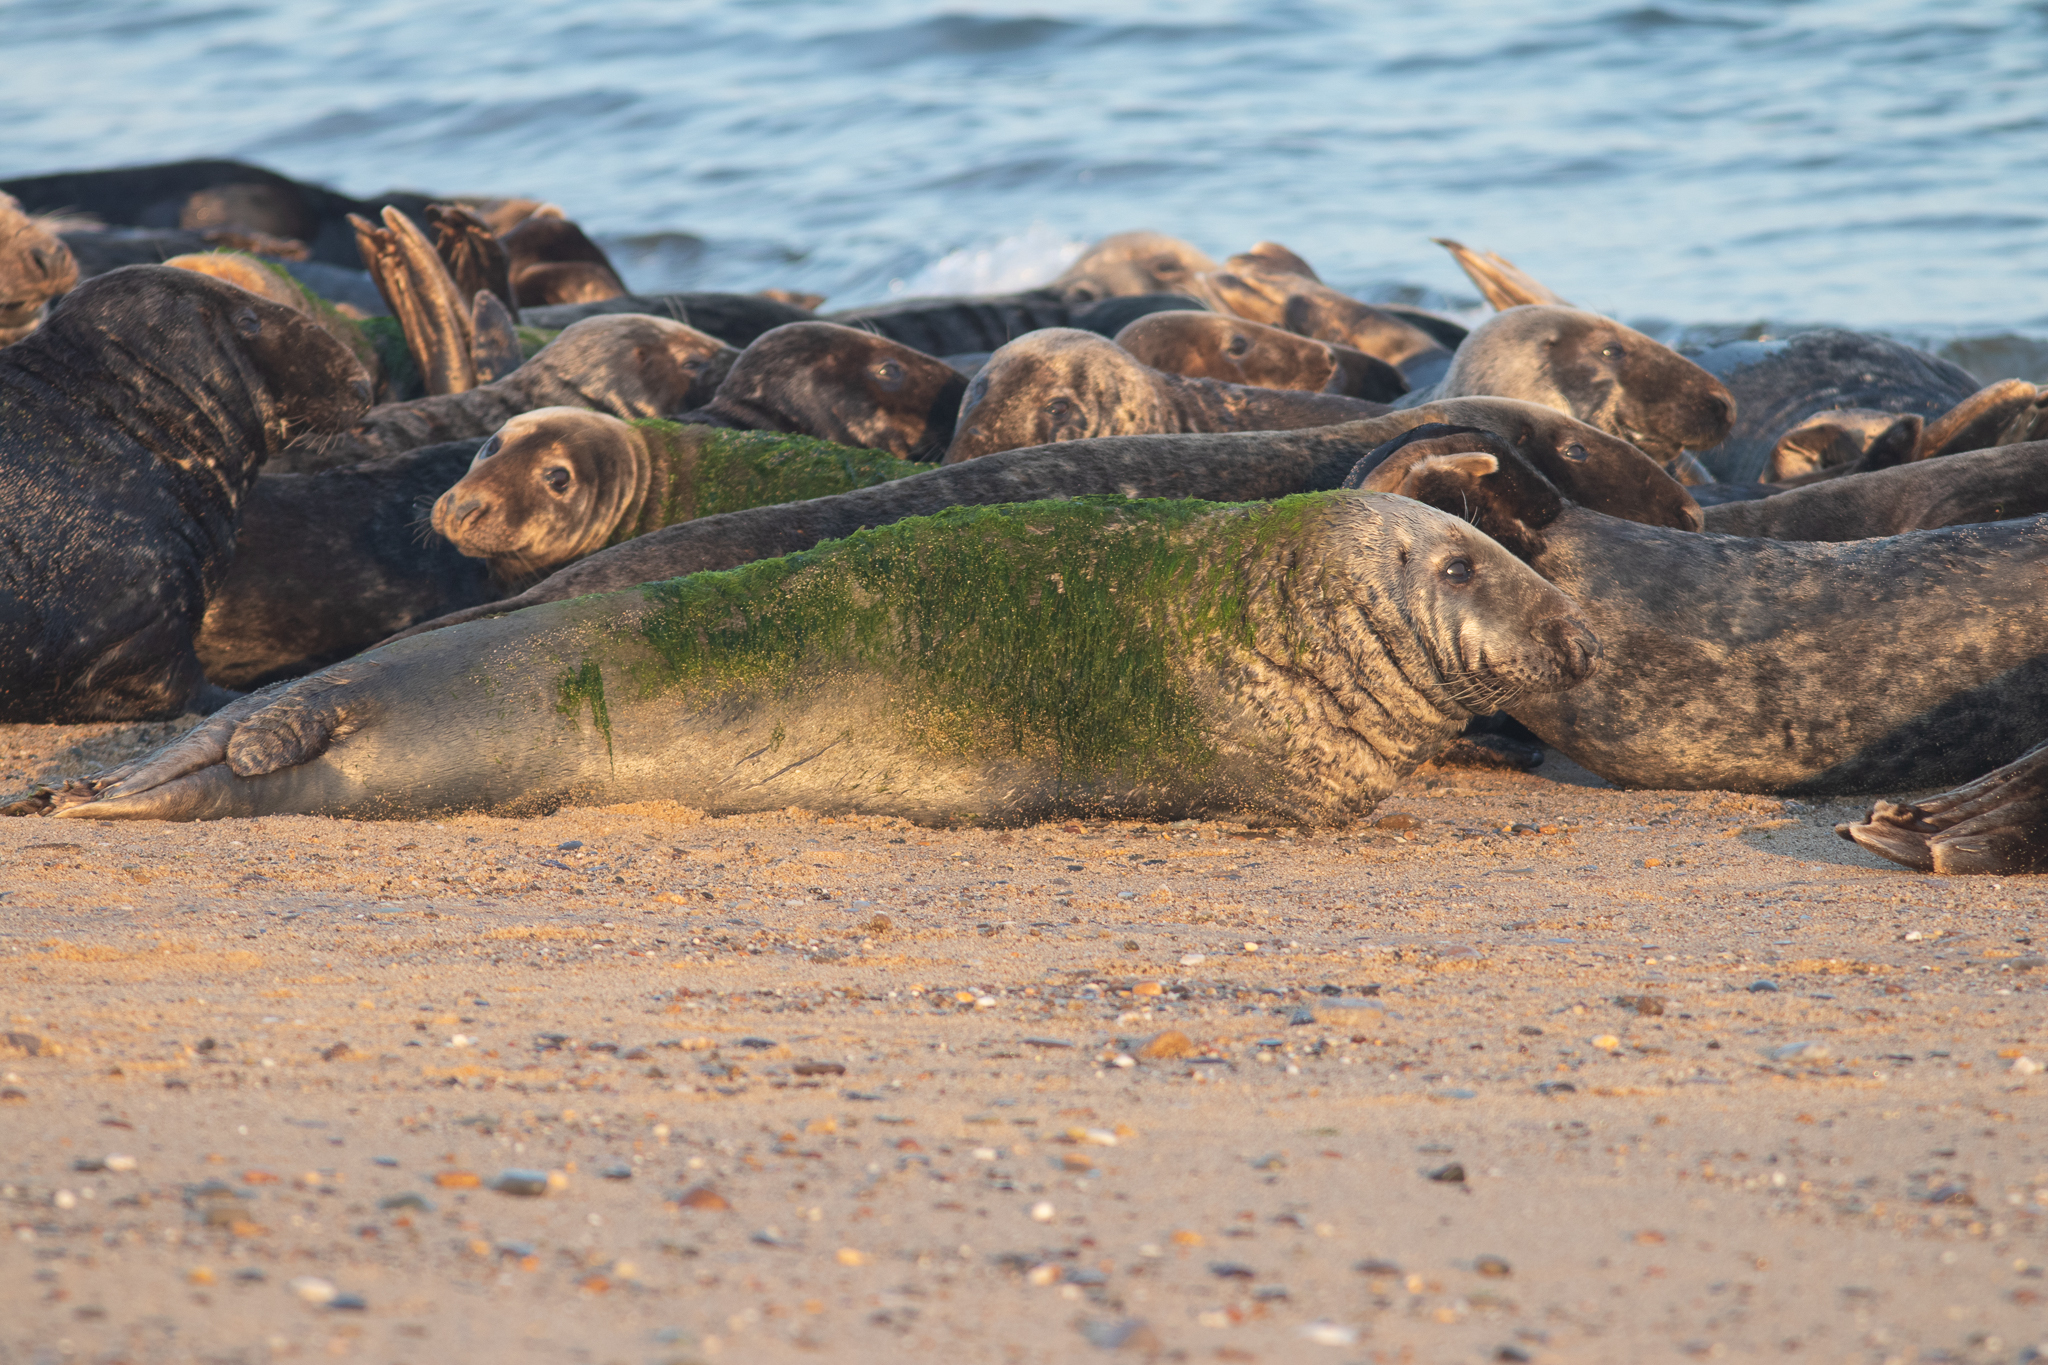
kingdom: Animalia
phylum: Chordata
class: Mammalia
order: Carnivora
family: Phocidae
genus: Halichoerus
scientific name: Halichoerus grypus
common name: Grey seal
